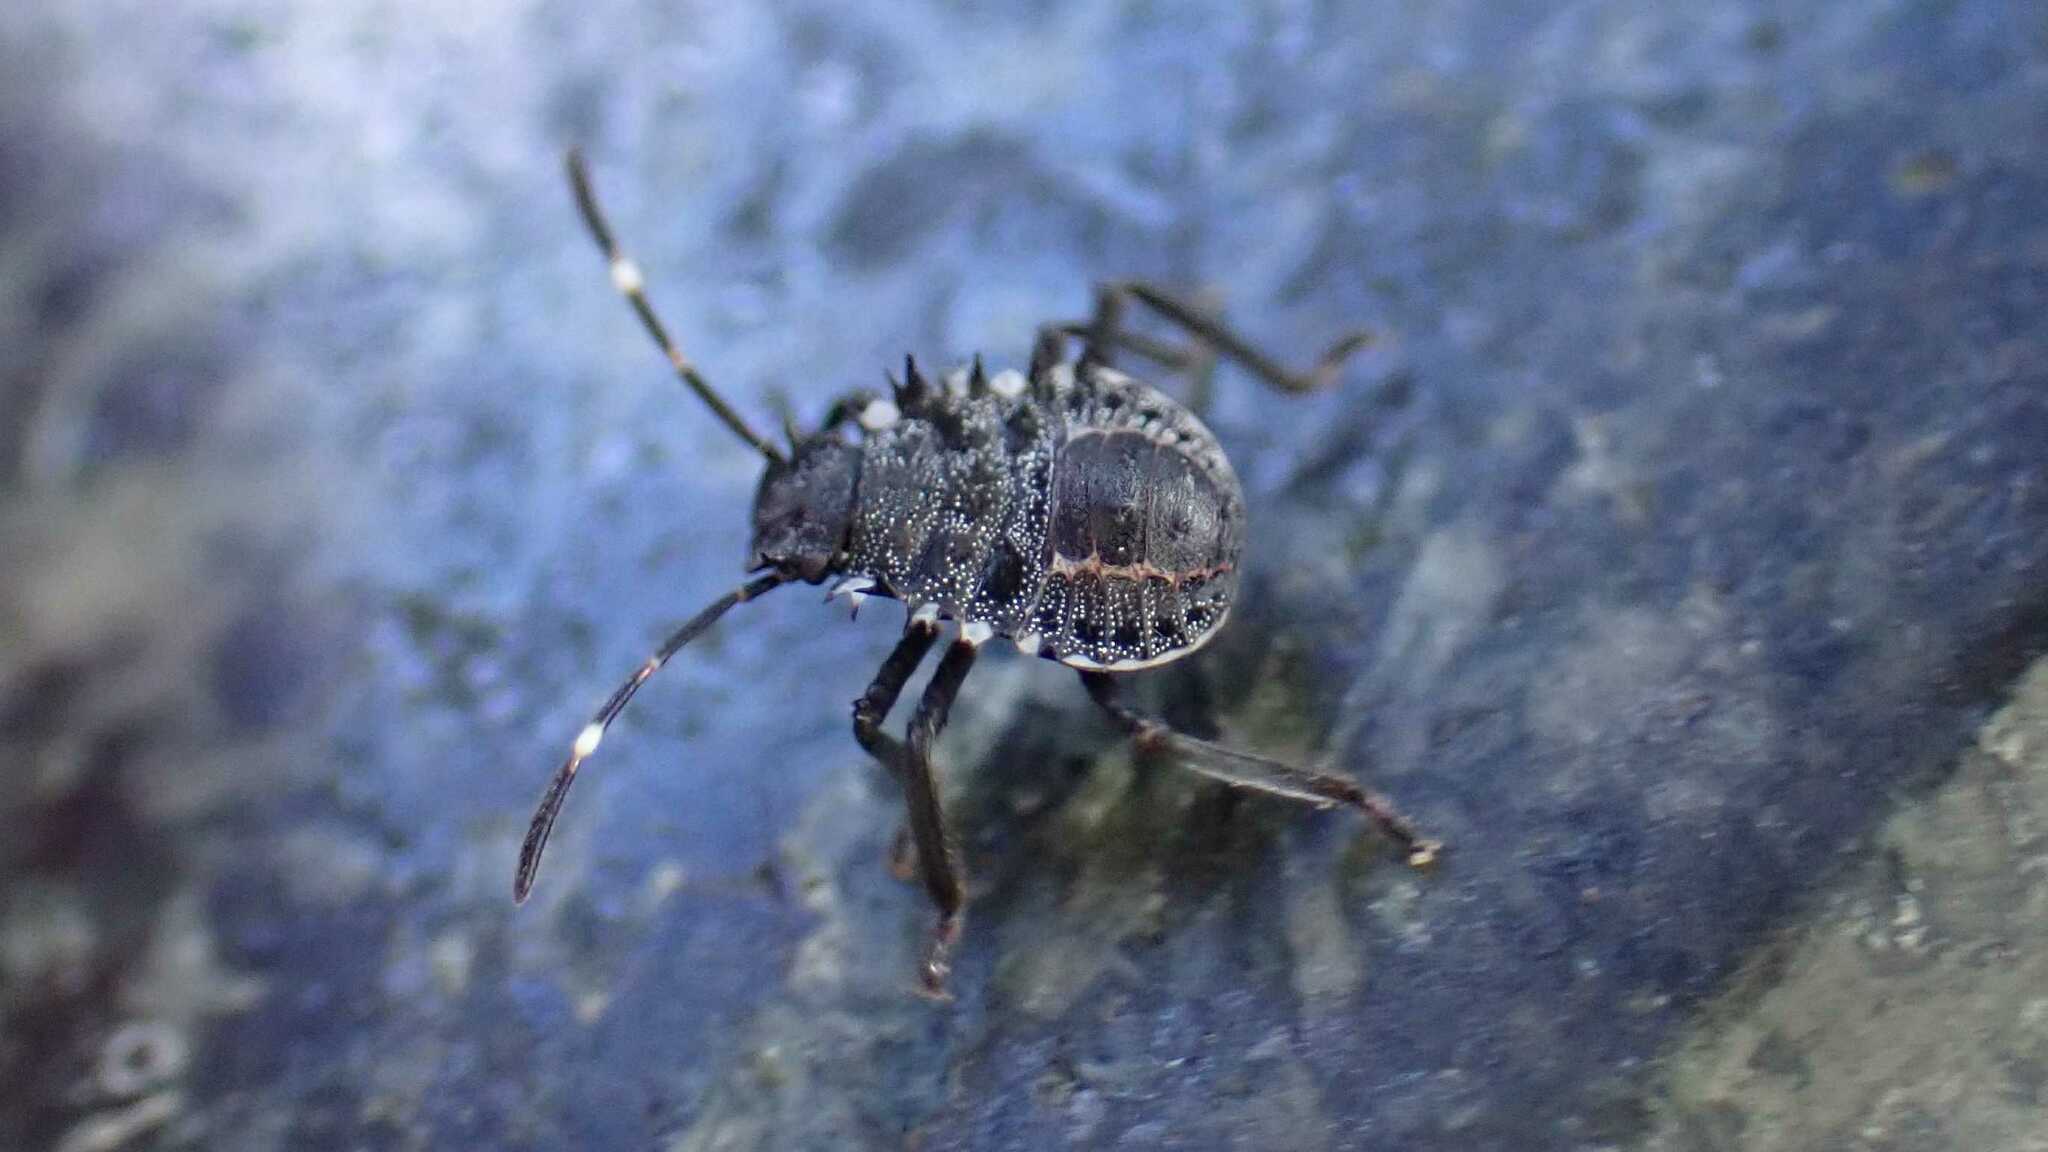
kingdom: Animalia
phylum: Arthropoda
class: Insecta
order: Hemiptera
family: Pentatomidae
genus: Halyomorpha
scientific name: Halyomorpha halys
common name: Brown marmorated stink bug
